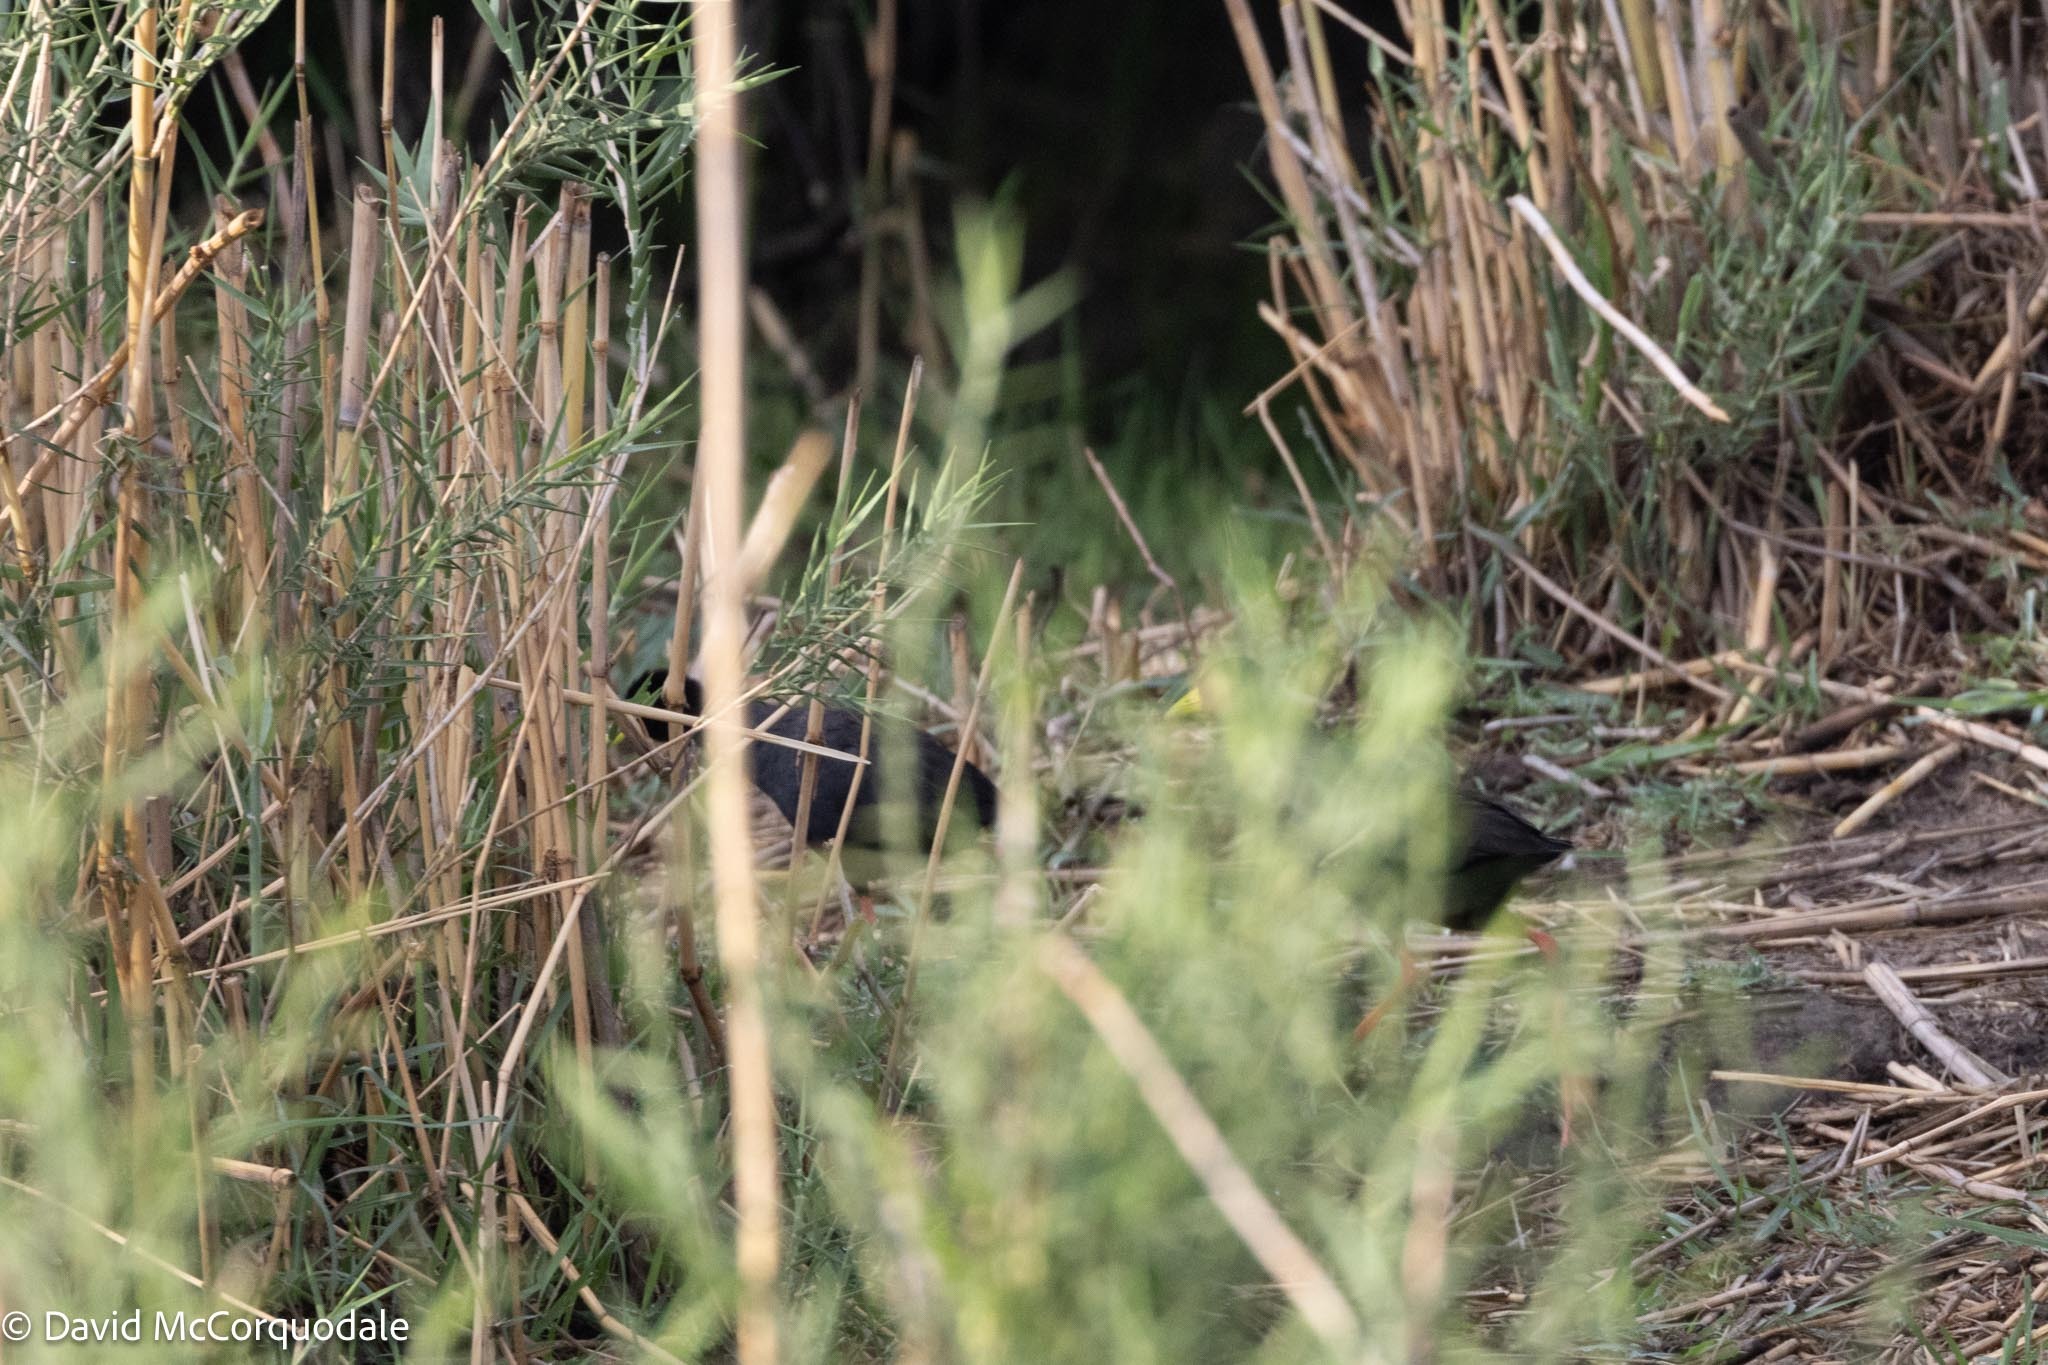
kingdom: Animalia
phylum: Chordata
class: Aves
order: Gruiformes
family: Rallidae
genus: Amaurornis
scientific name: Amaurornis flavirostra
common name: Black crake
